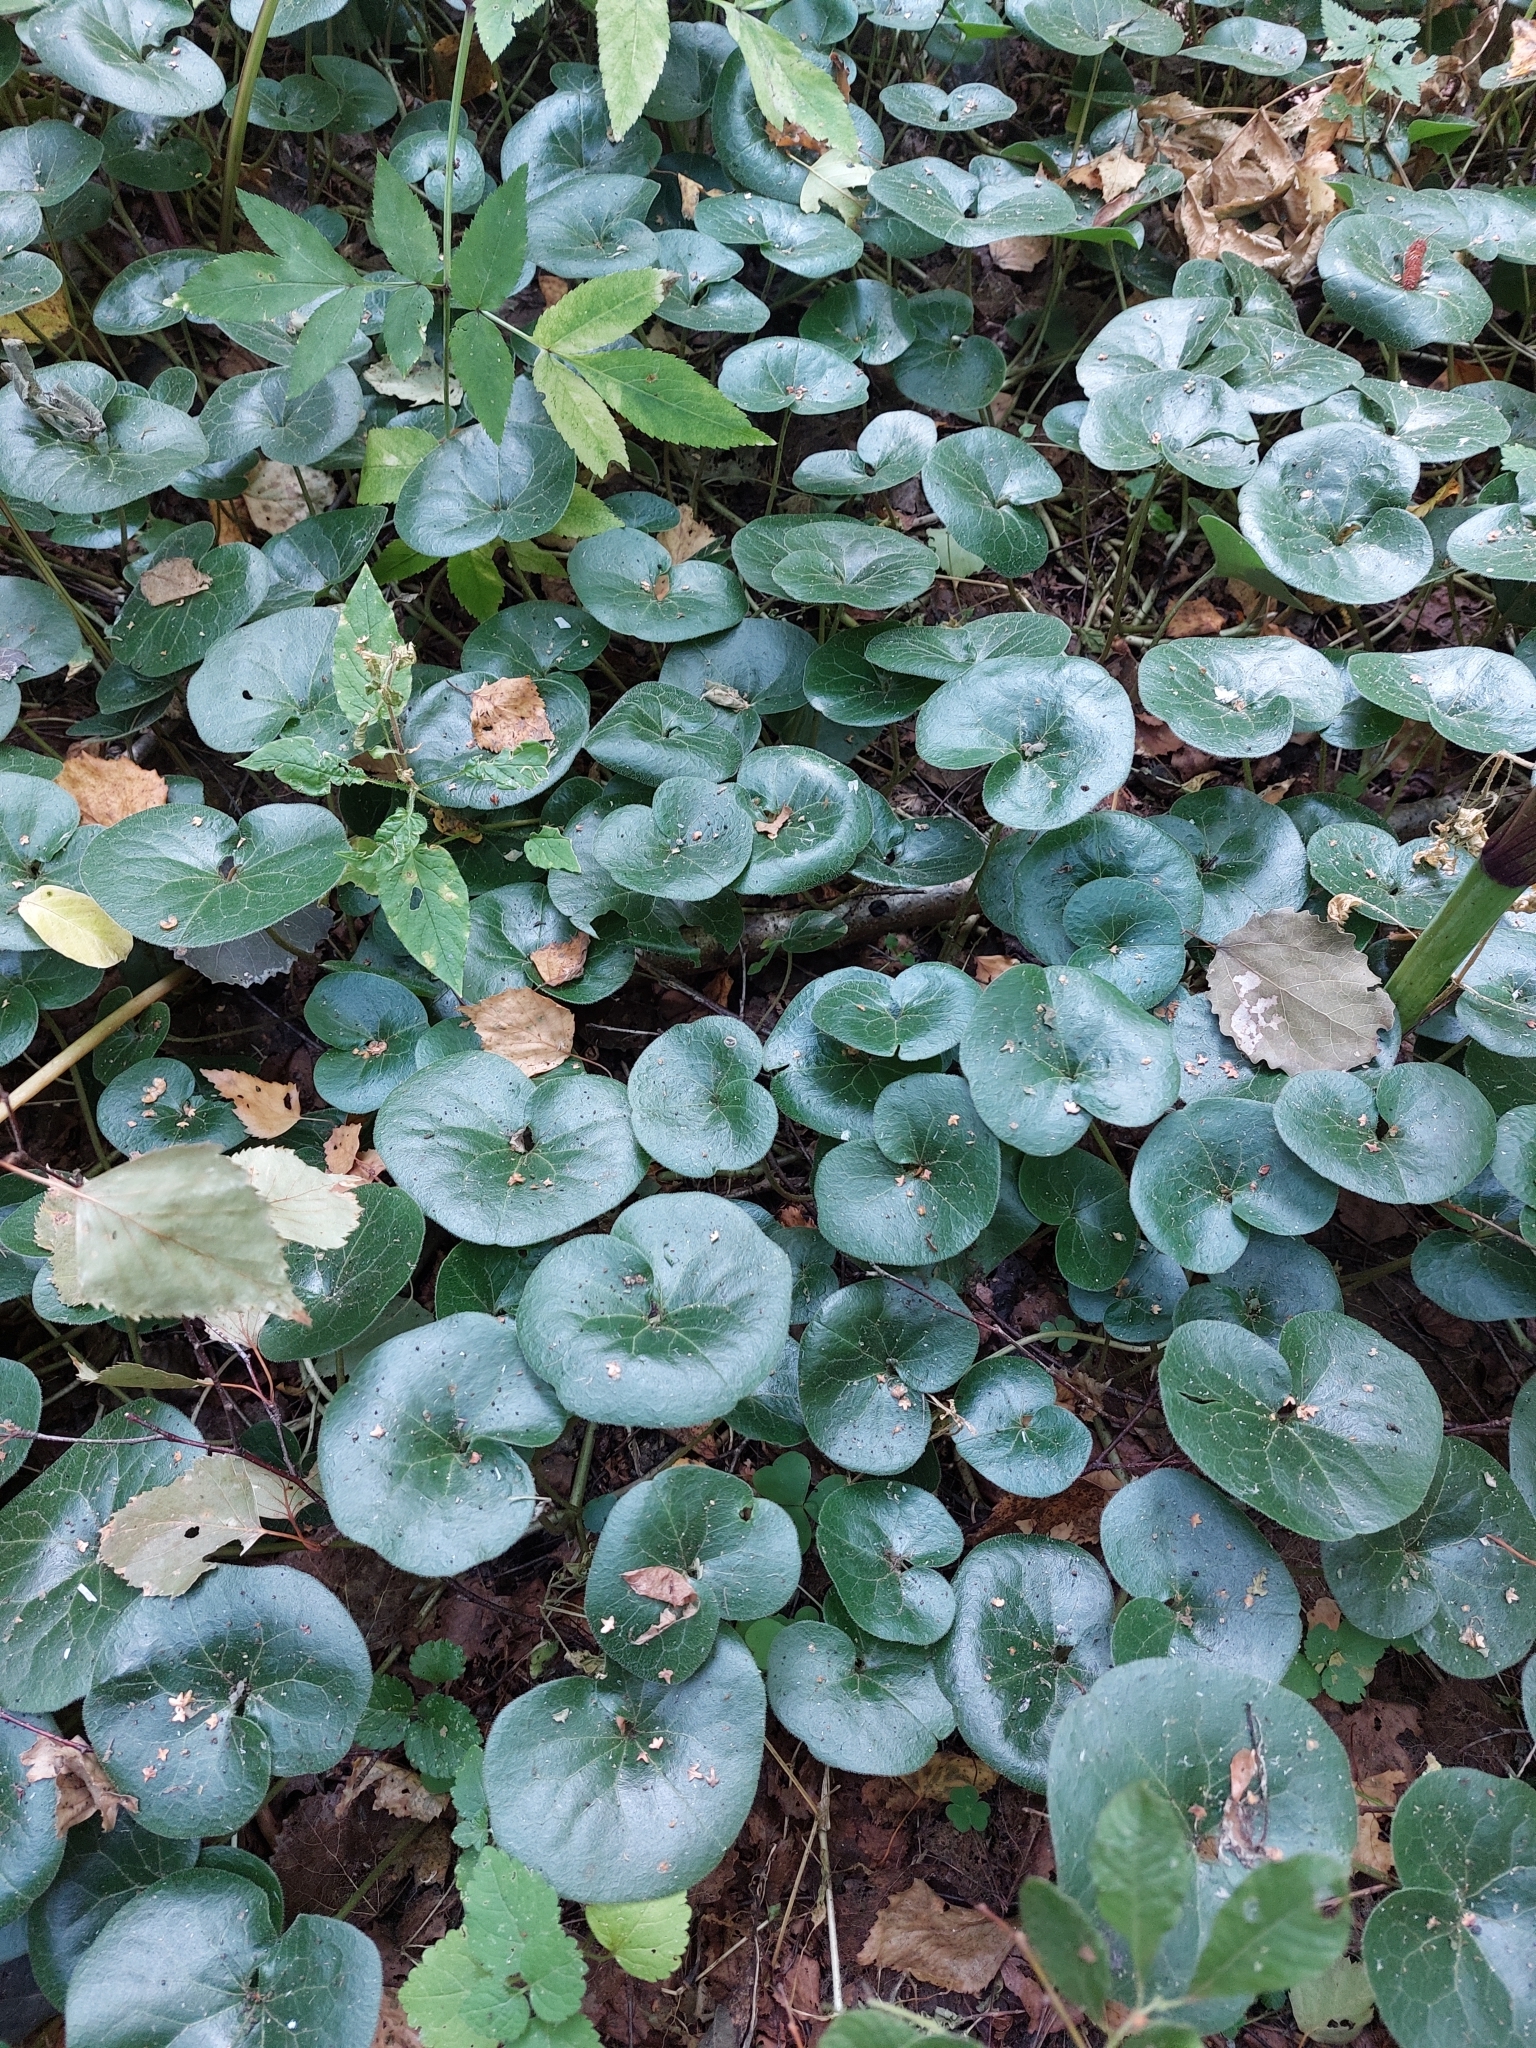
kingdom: Plantae
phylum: Tracheophyta
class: Magnoliopsida
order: Piperales
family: Aristolochiaceae
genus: Asarum
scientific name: Asarum europaeum
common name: Asarabacca
